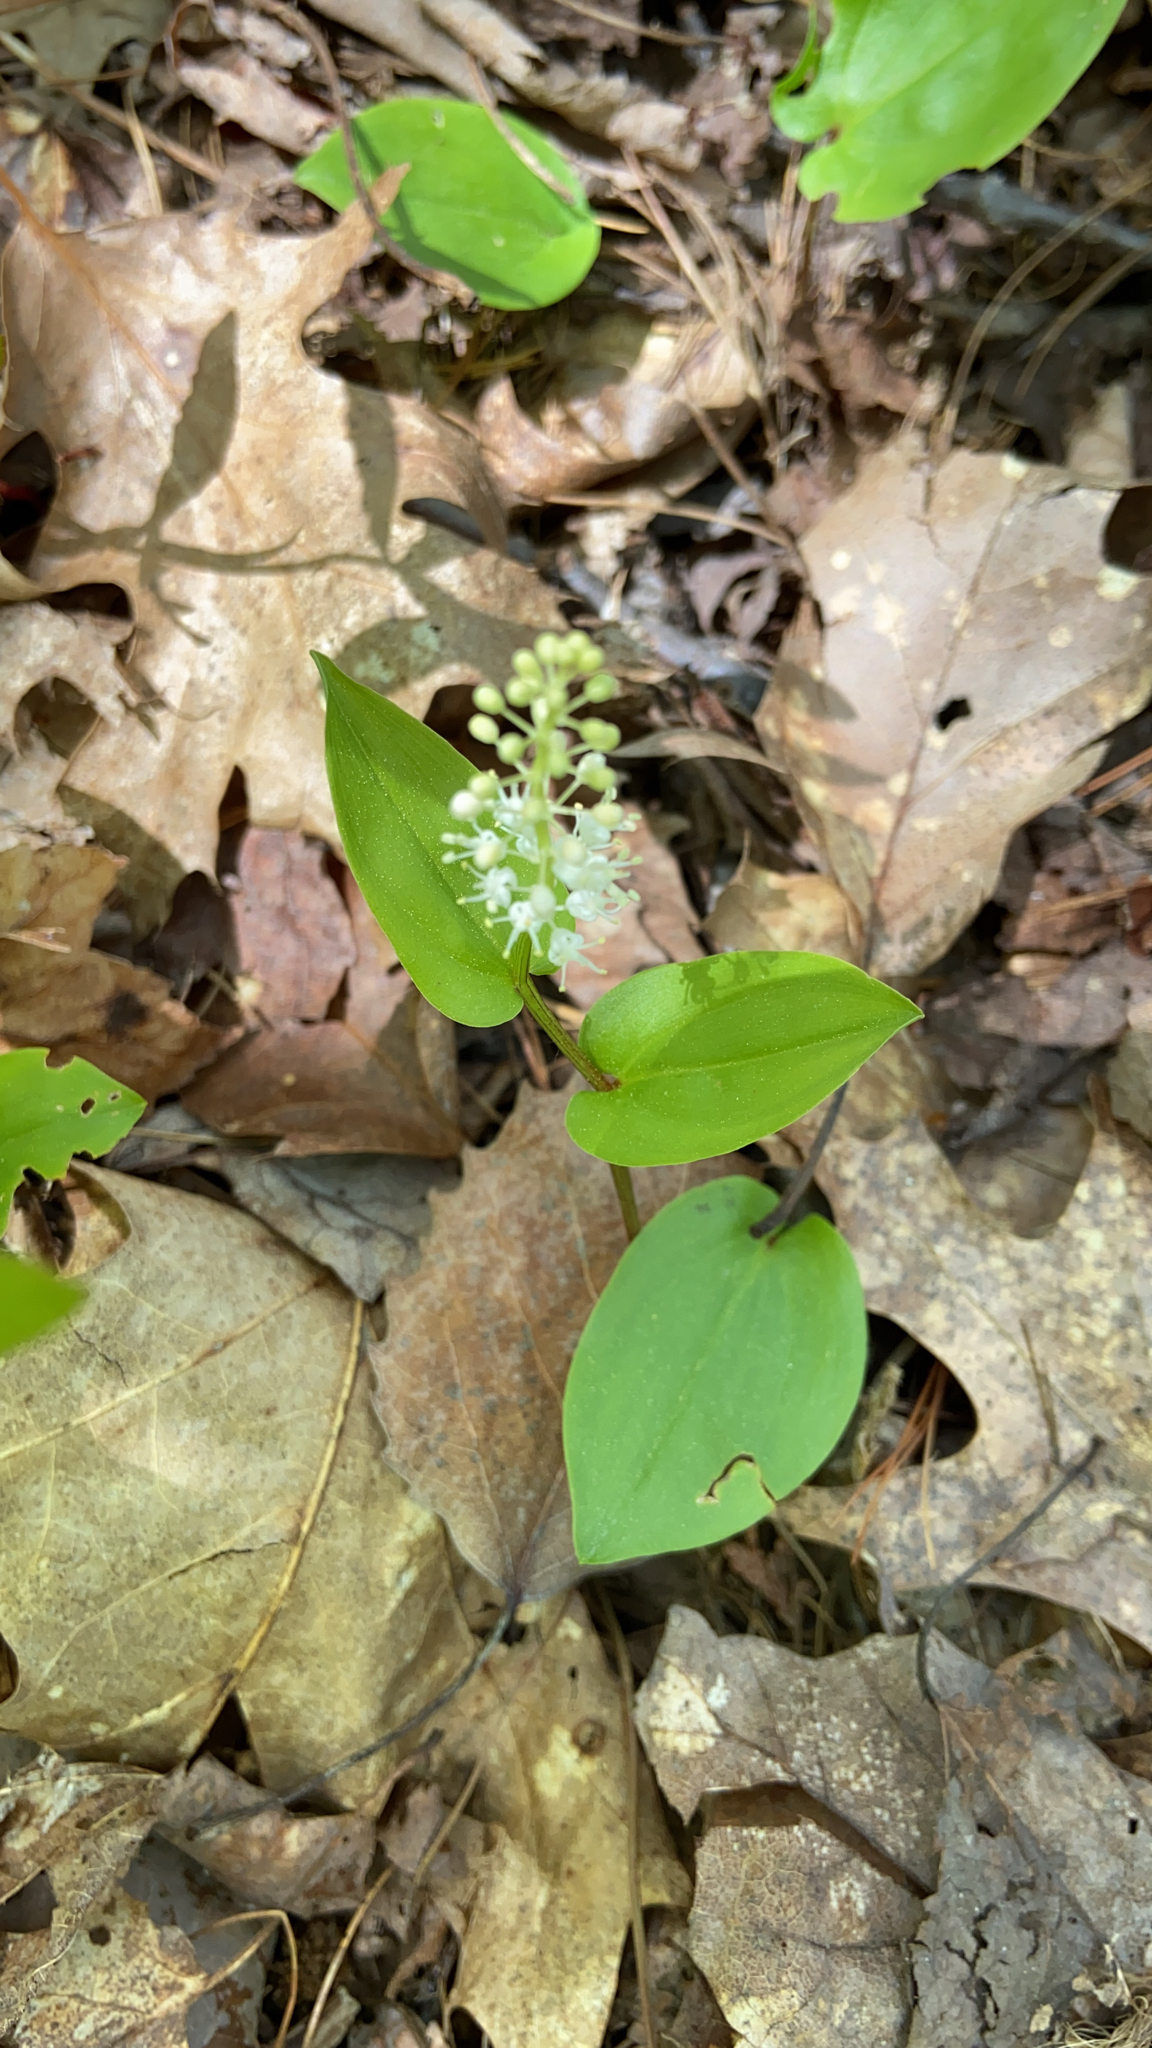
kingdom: Plantae
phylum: Tracheophyta
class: Liliopsida
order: Asparagales
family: Asparagaceae
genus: Maianthemum
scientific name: Maianthemum canadense
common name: False lily-of-the-valley
